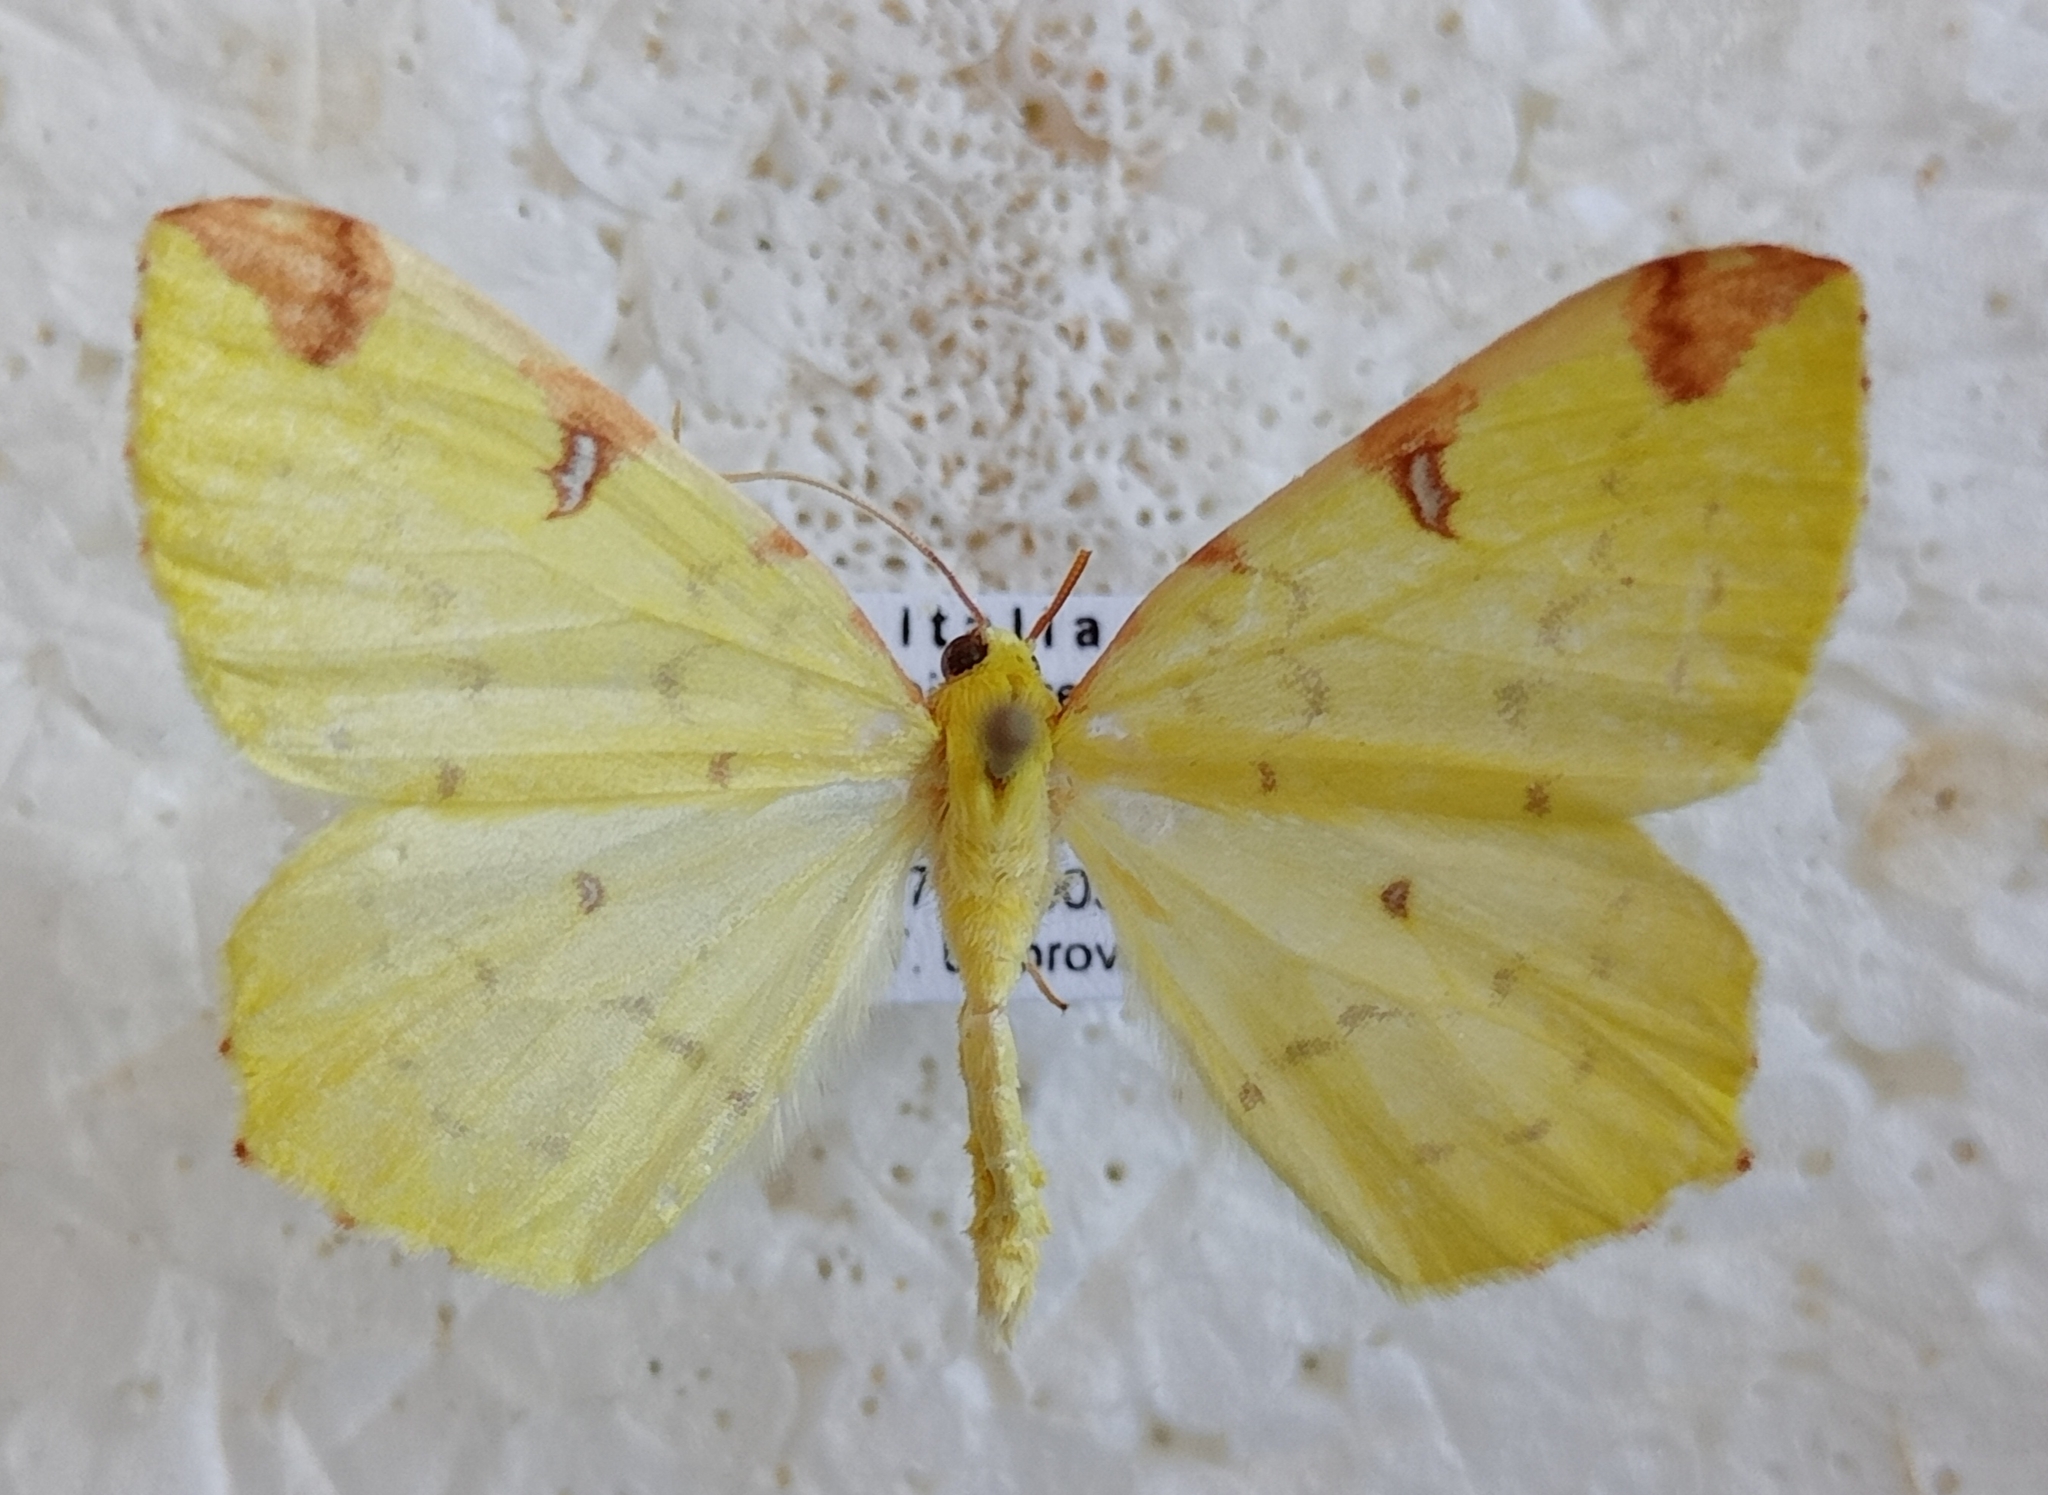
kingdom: Animalia
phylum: Arthropoda
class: Insecta
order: Lepidoptera
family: Geometridae
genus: Opisthograptis
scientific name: Opisthograptis luteolata
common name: Brimstone moth
